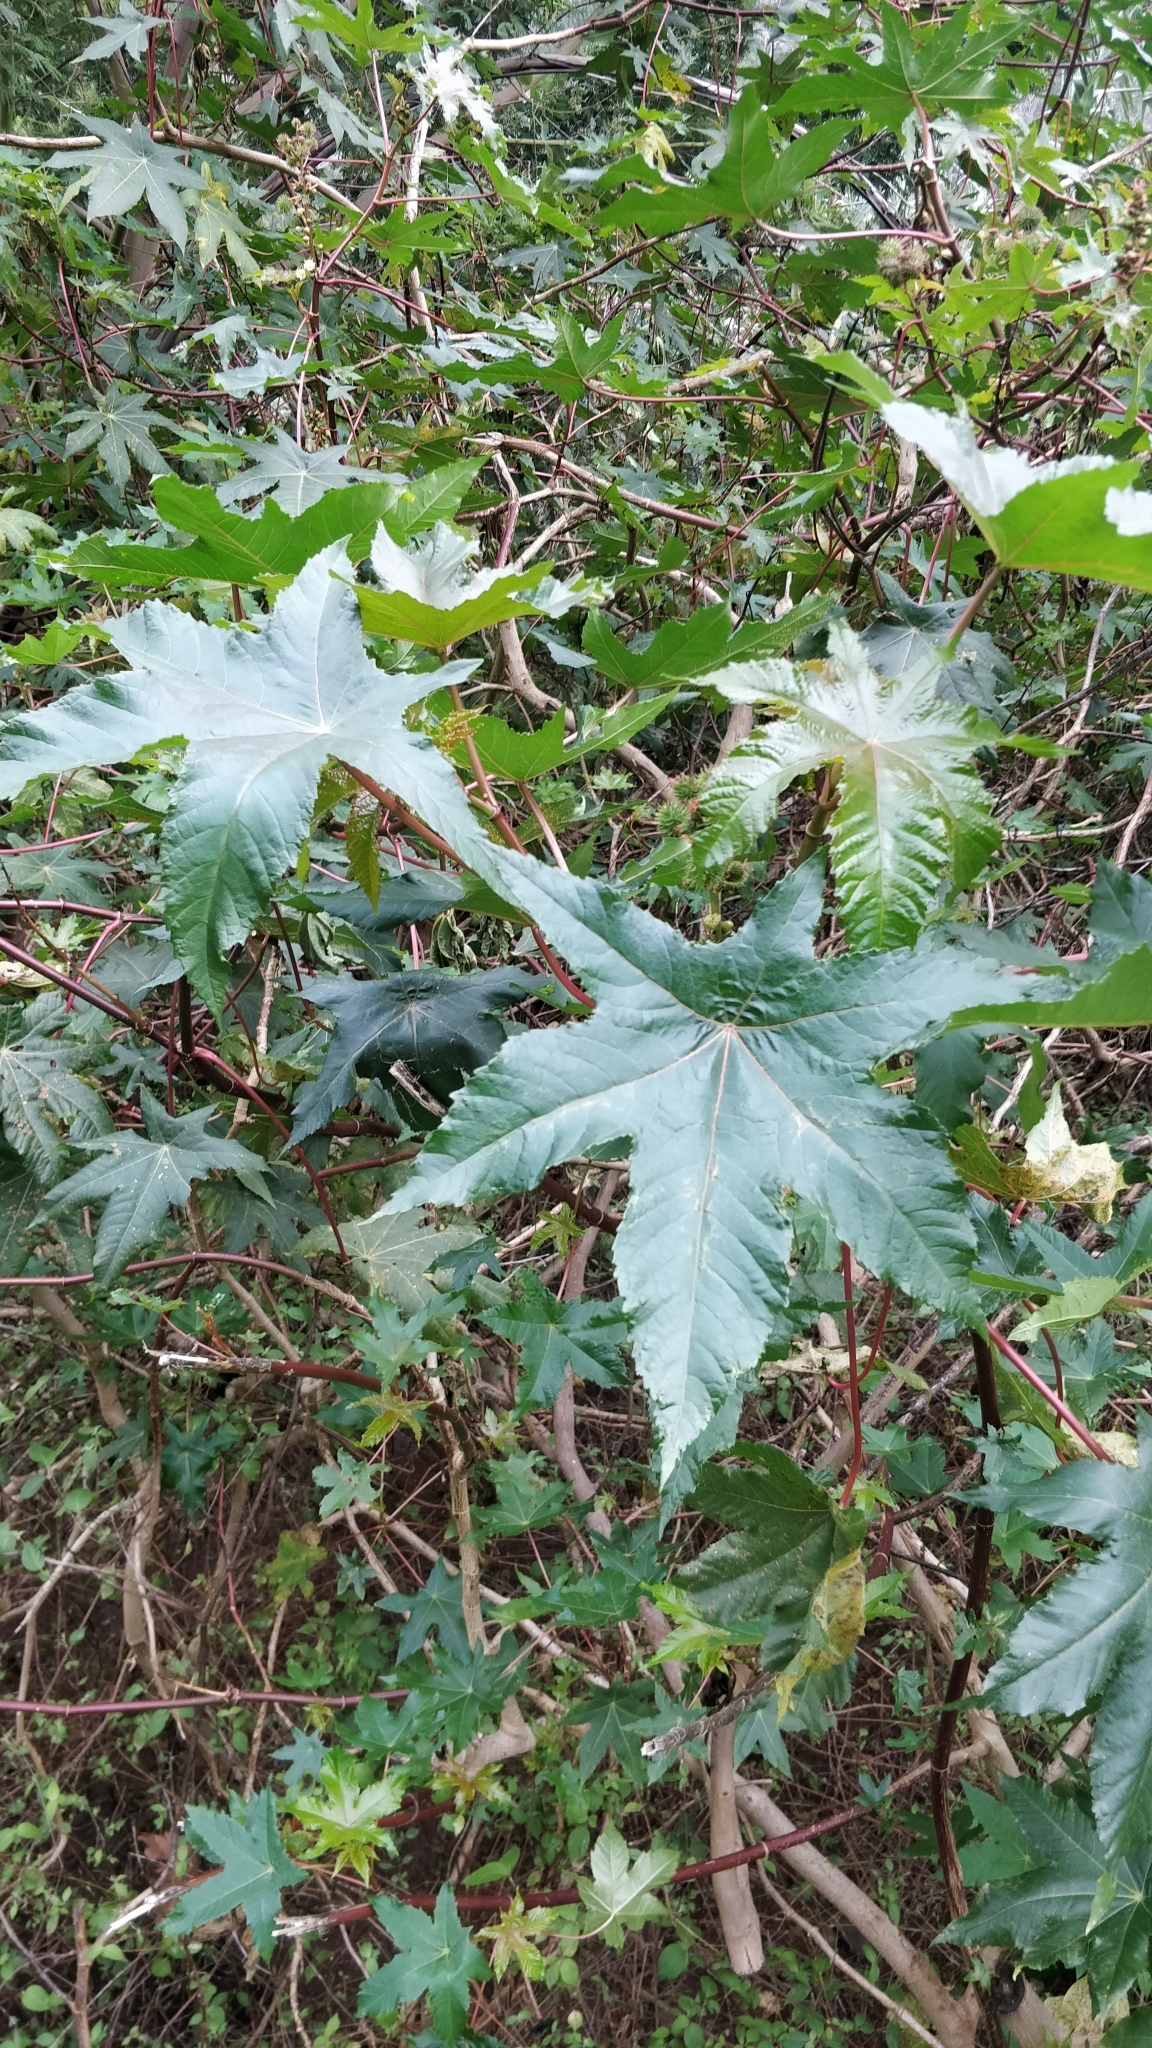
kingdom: Plantae
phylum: Tracheophyta
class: Magnoliopsida
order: Malpighiales
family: Euphorbiaceae
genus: Ricinus
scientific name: Ricinus communis
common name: Castor-oil-plant
